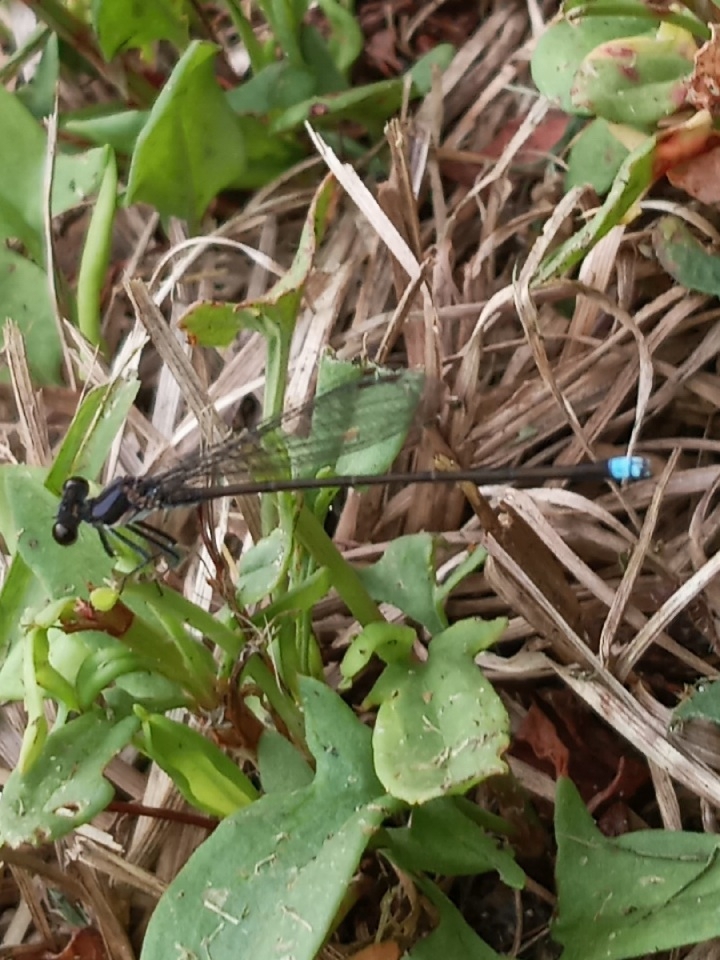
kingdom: Animalia
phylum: Arthropoda
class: Insecta
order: Odonata
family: Coenagrionidae
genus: Argia
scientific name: Argia tibialis
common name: Blue-tipped dancer
